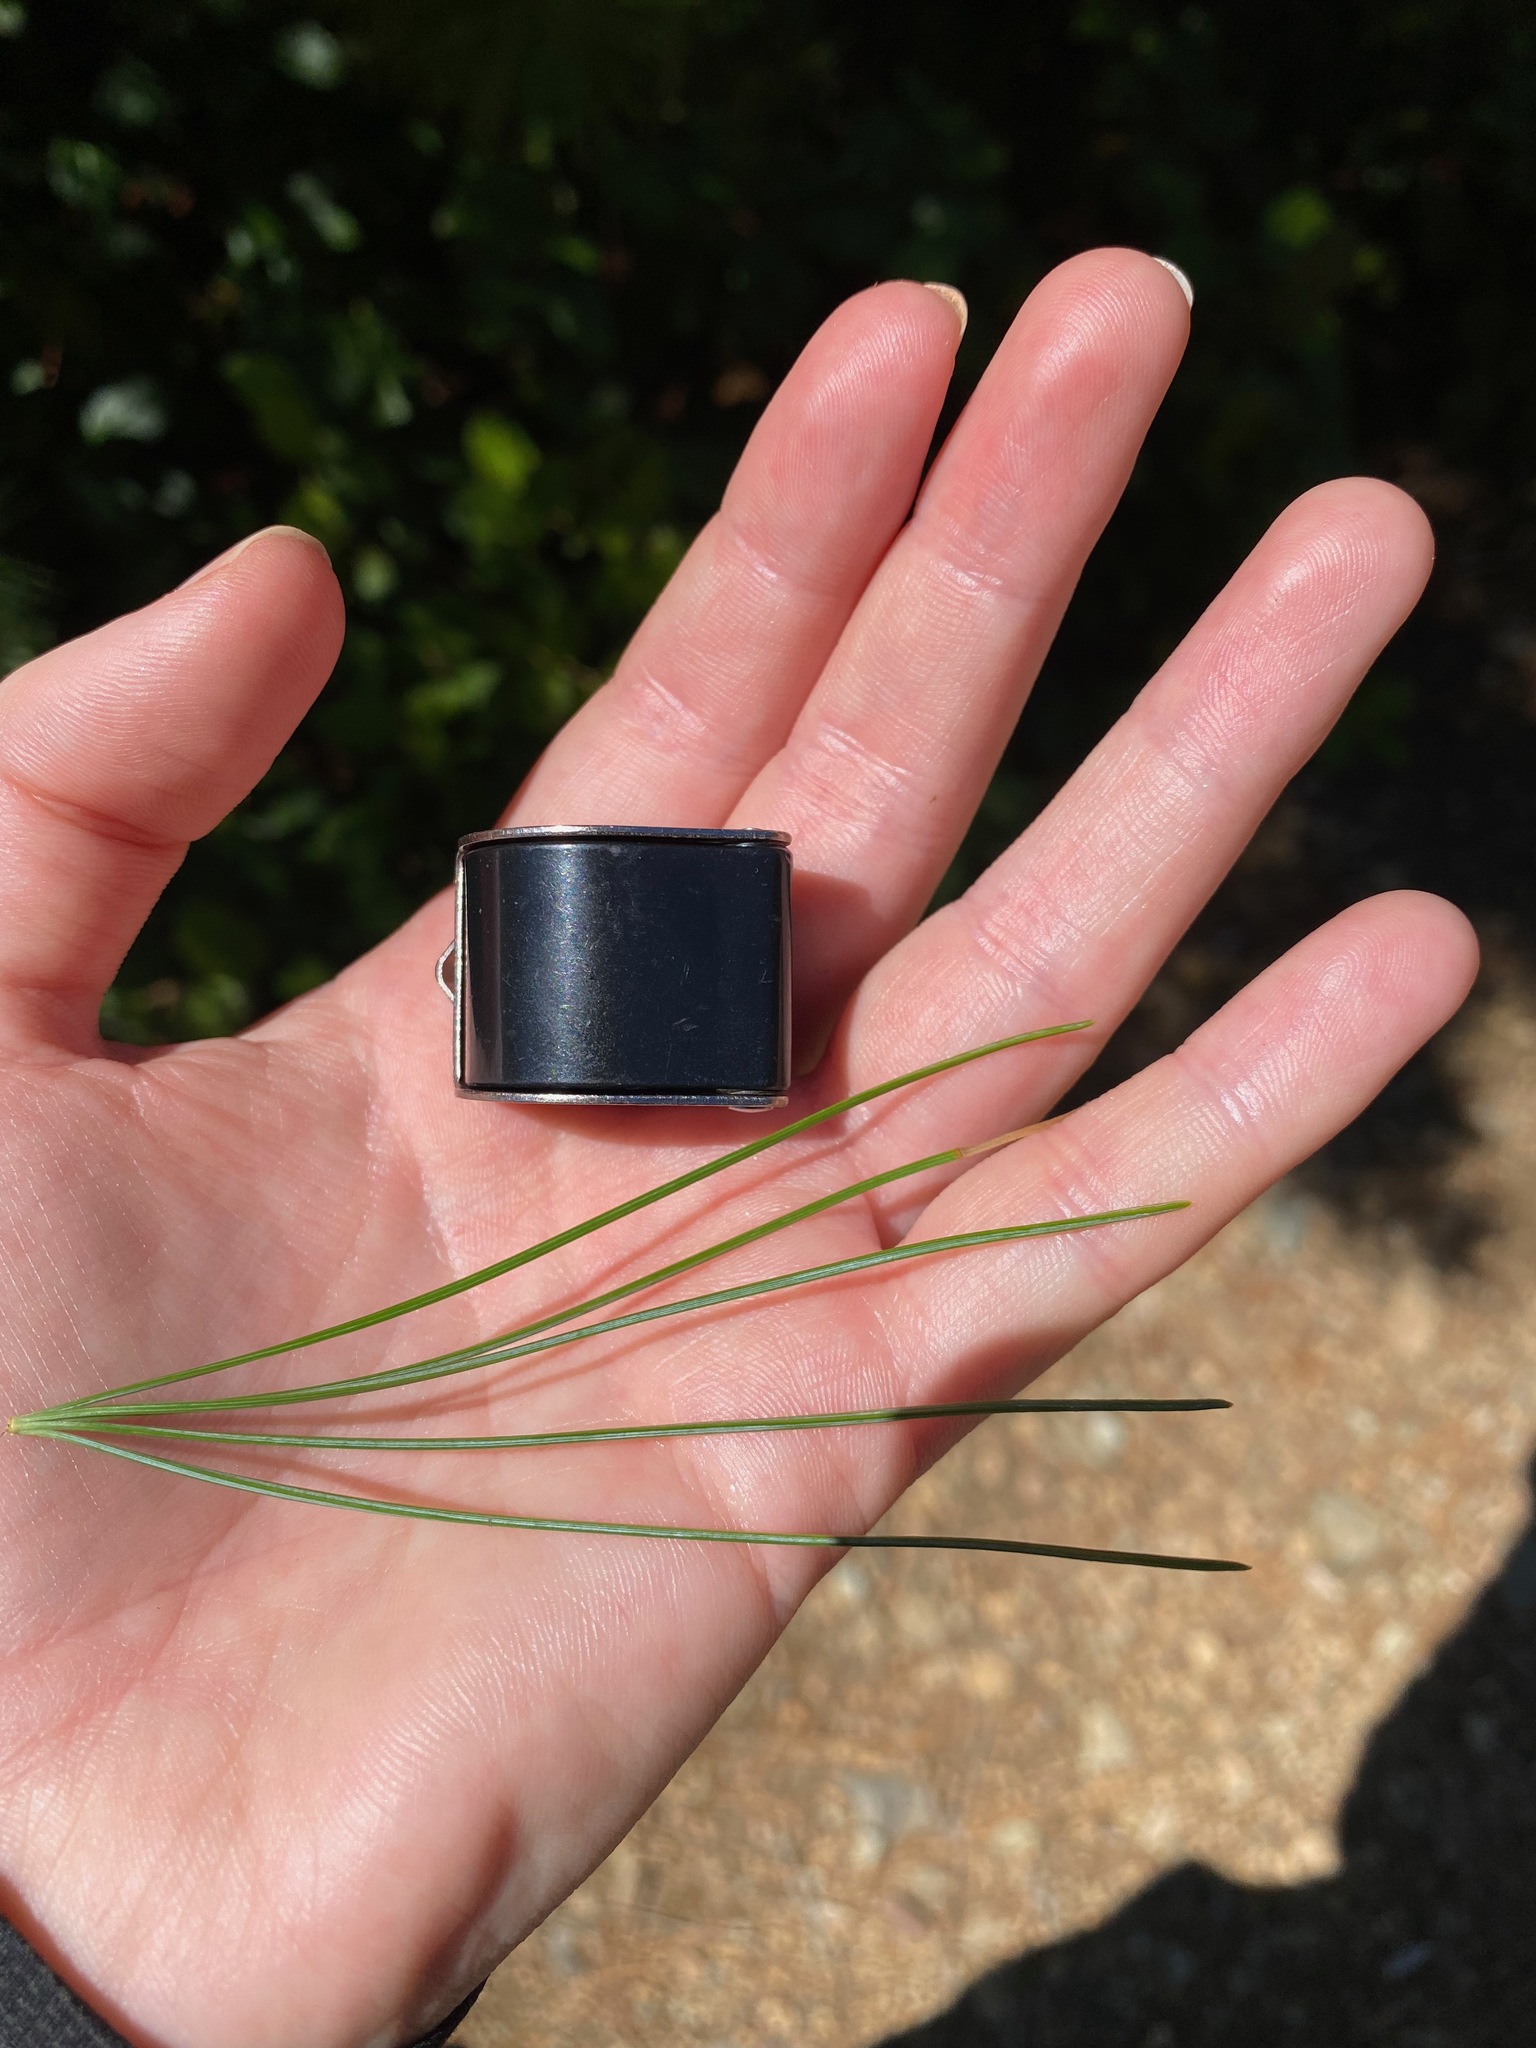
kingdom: Plantae
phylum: Tracheophyta
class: Pinopsida
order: Pinales
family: Pinaceae
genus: Pinus
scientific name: Pinus monticola
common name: Western white pine
